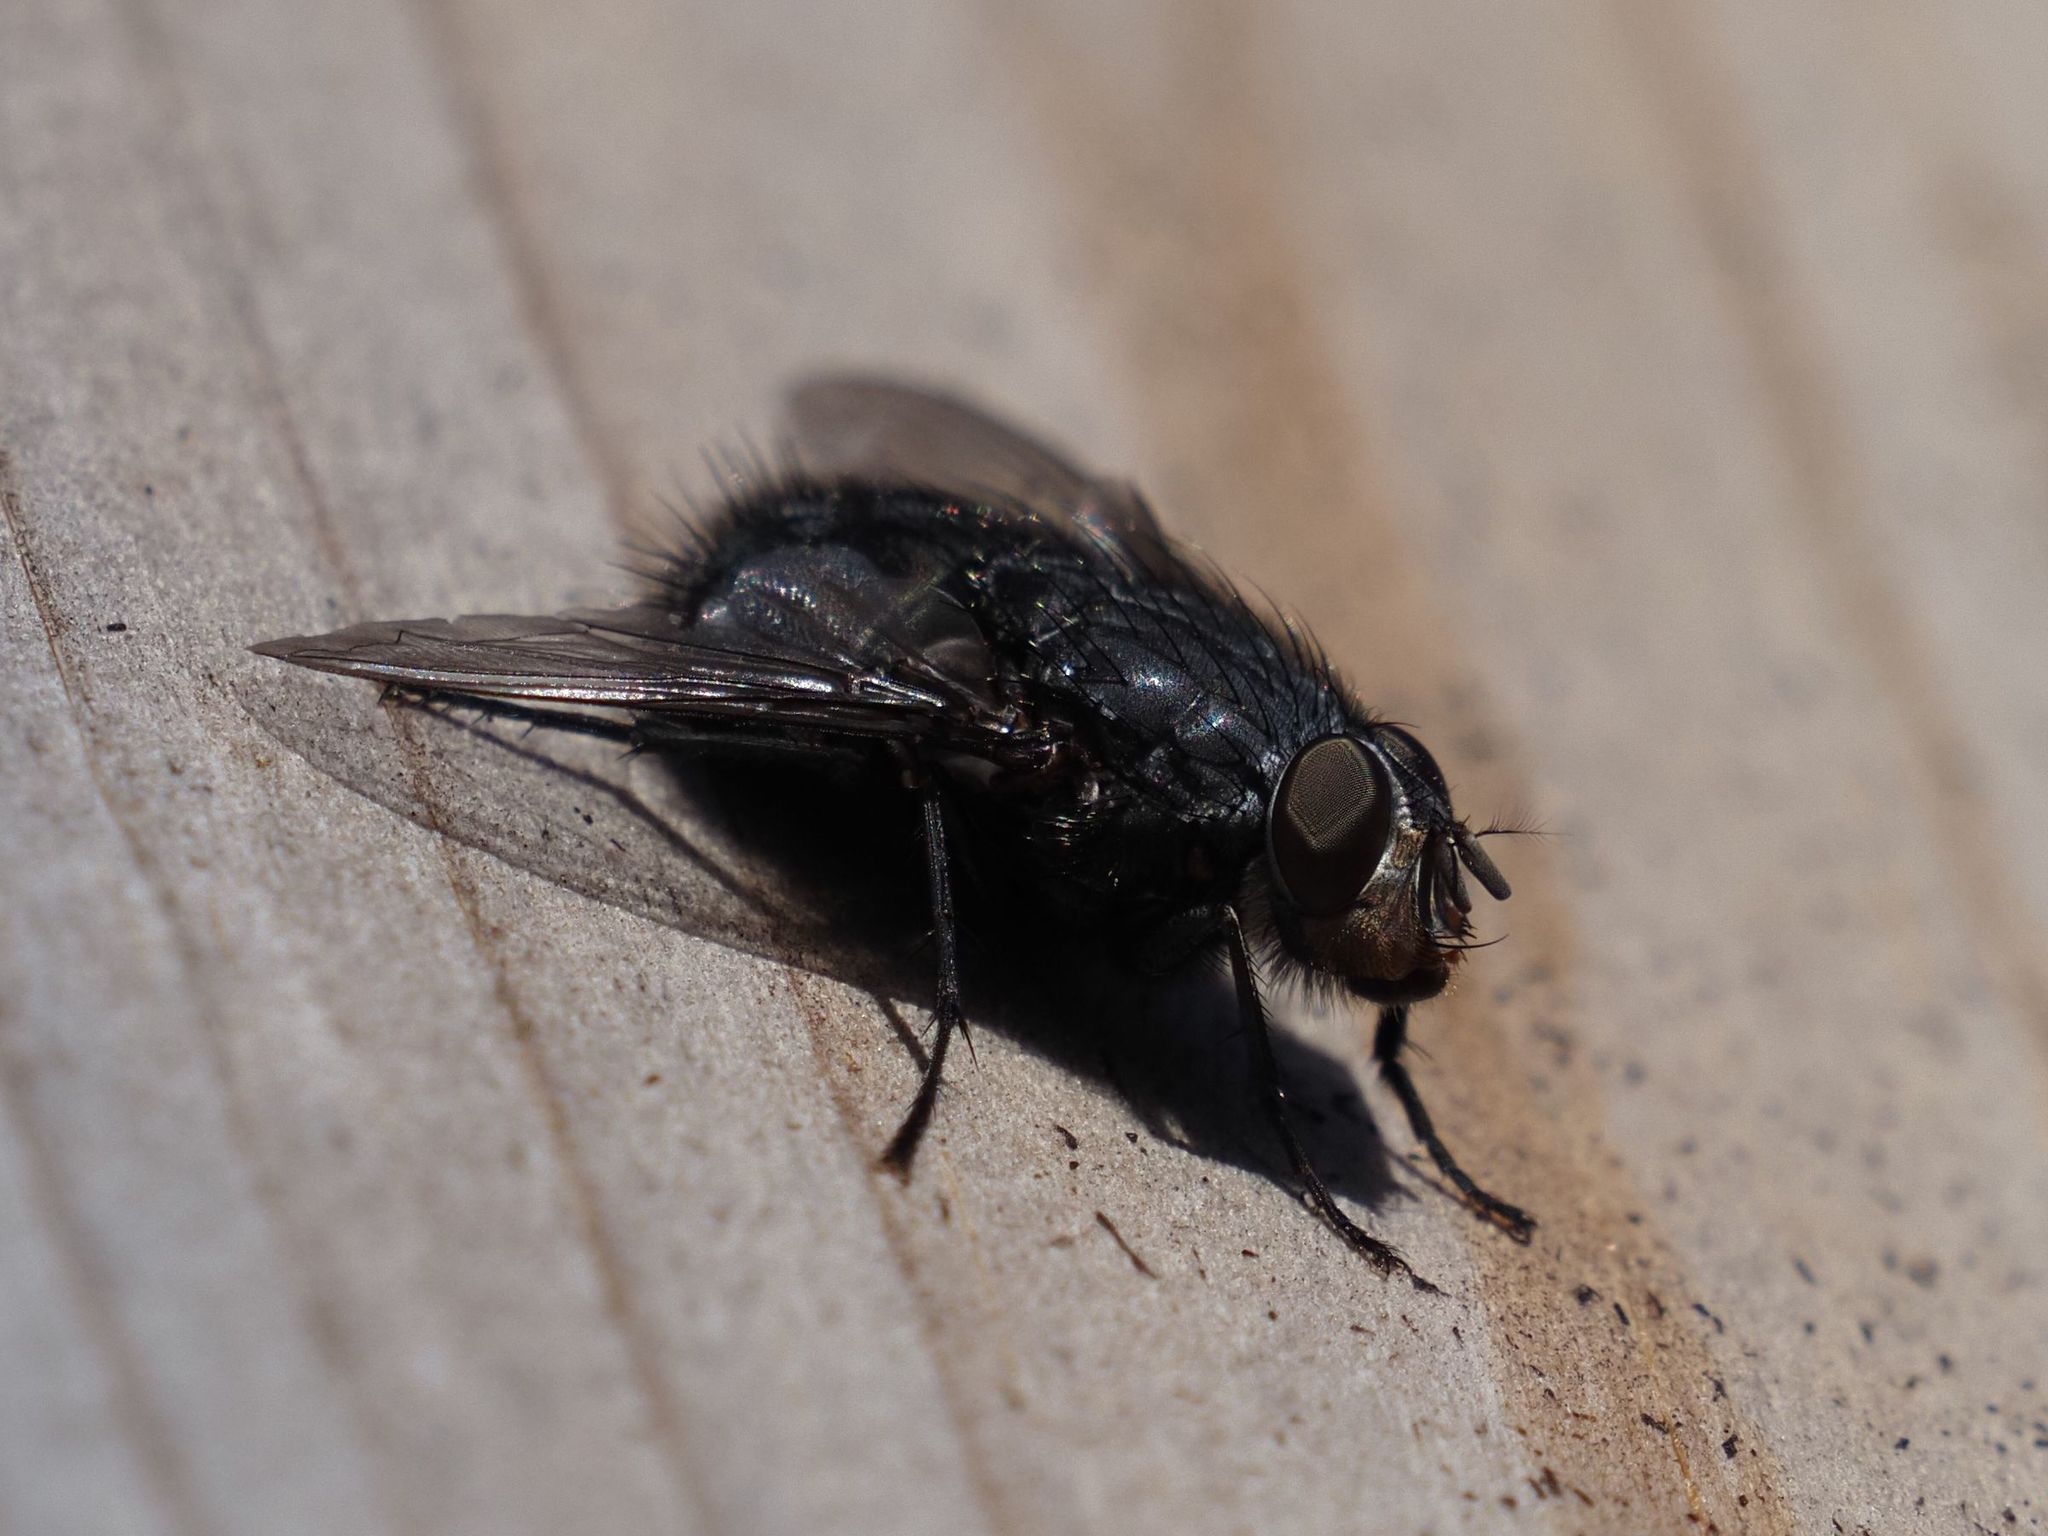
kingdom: Animalia
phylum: Arthropoda
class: Insecta
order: Diptera
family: Calliphoridae
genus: Calliphora
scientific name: Calliphora vicina
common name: Common blow flie
